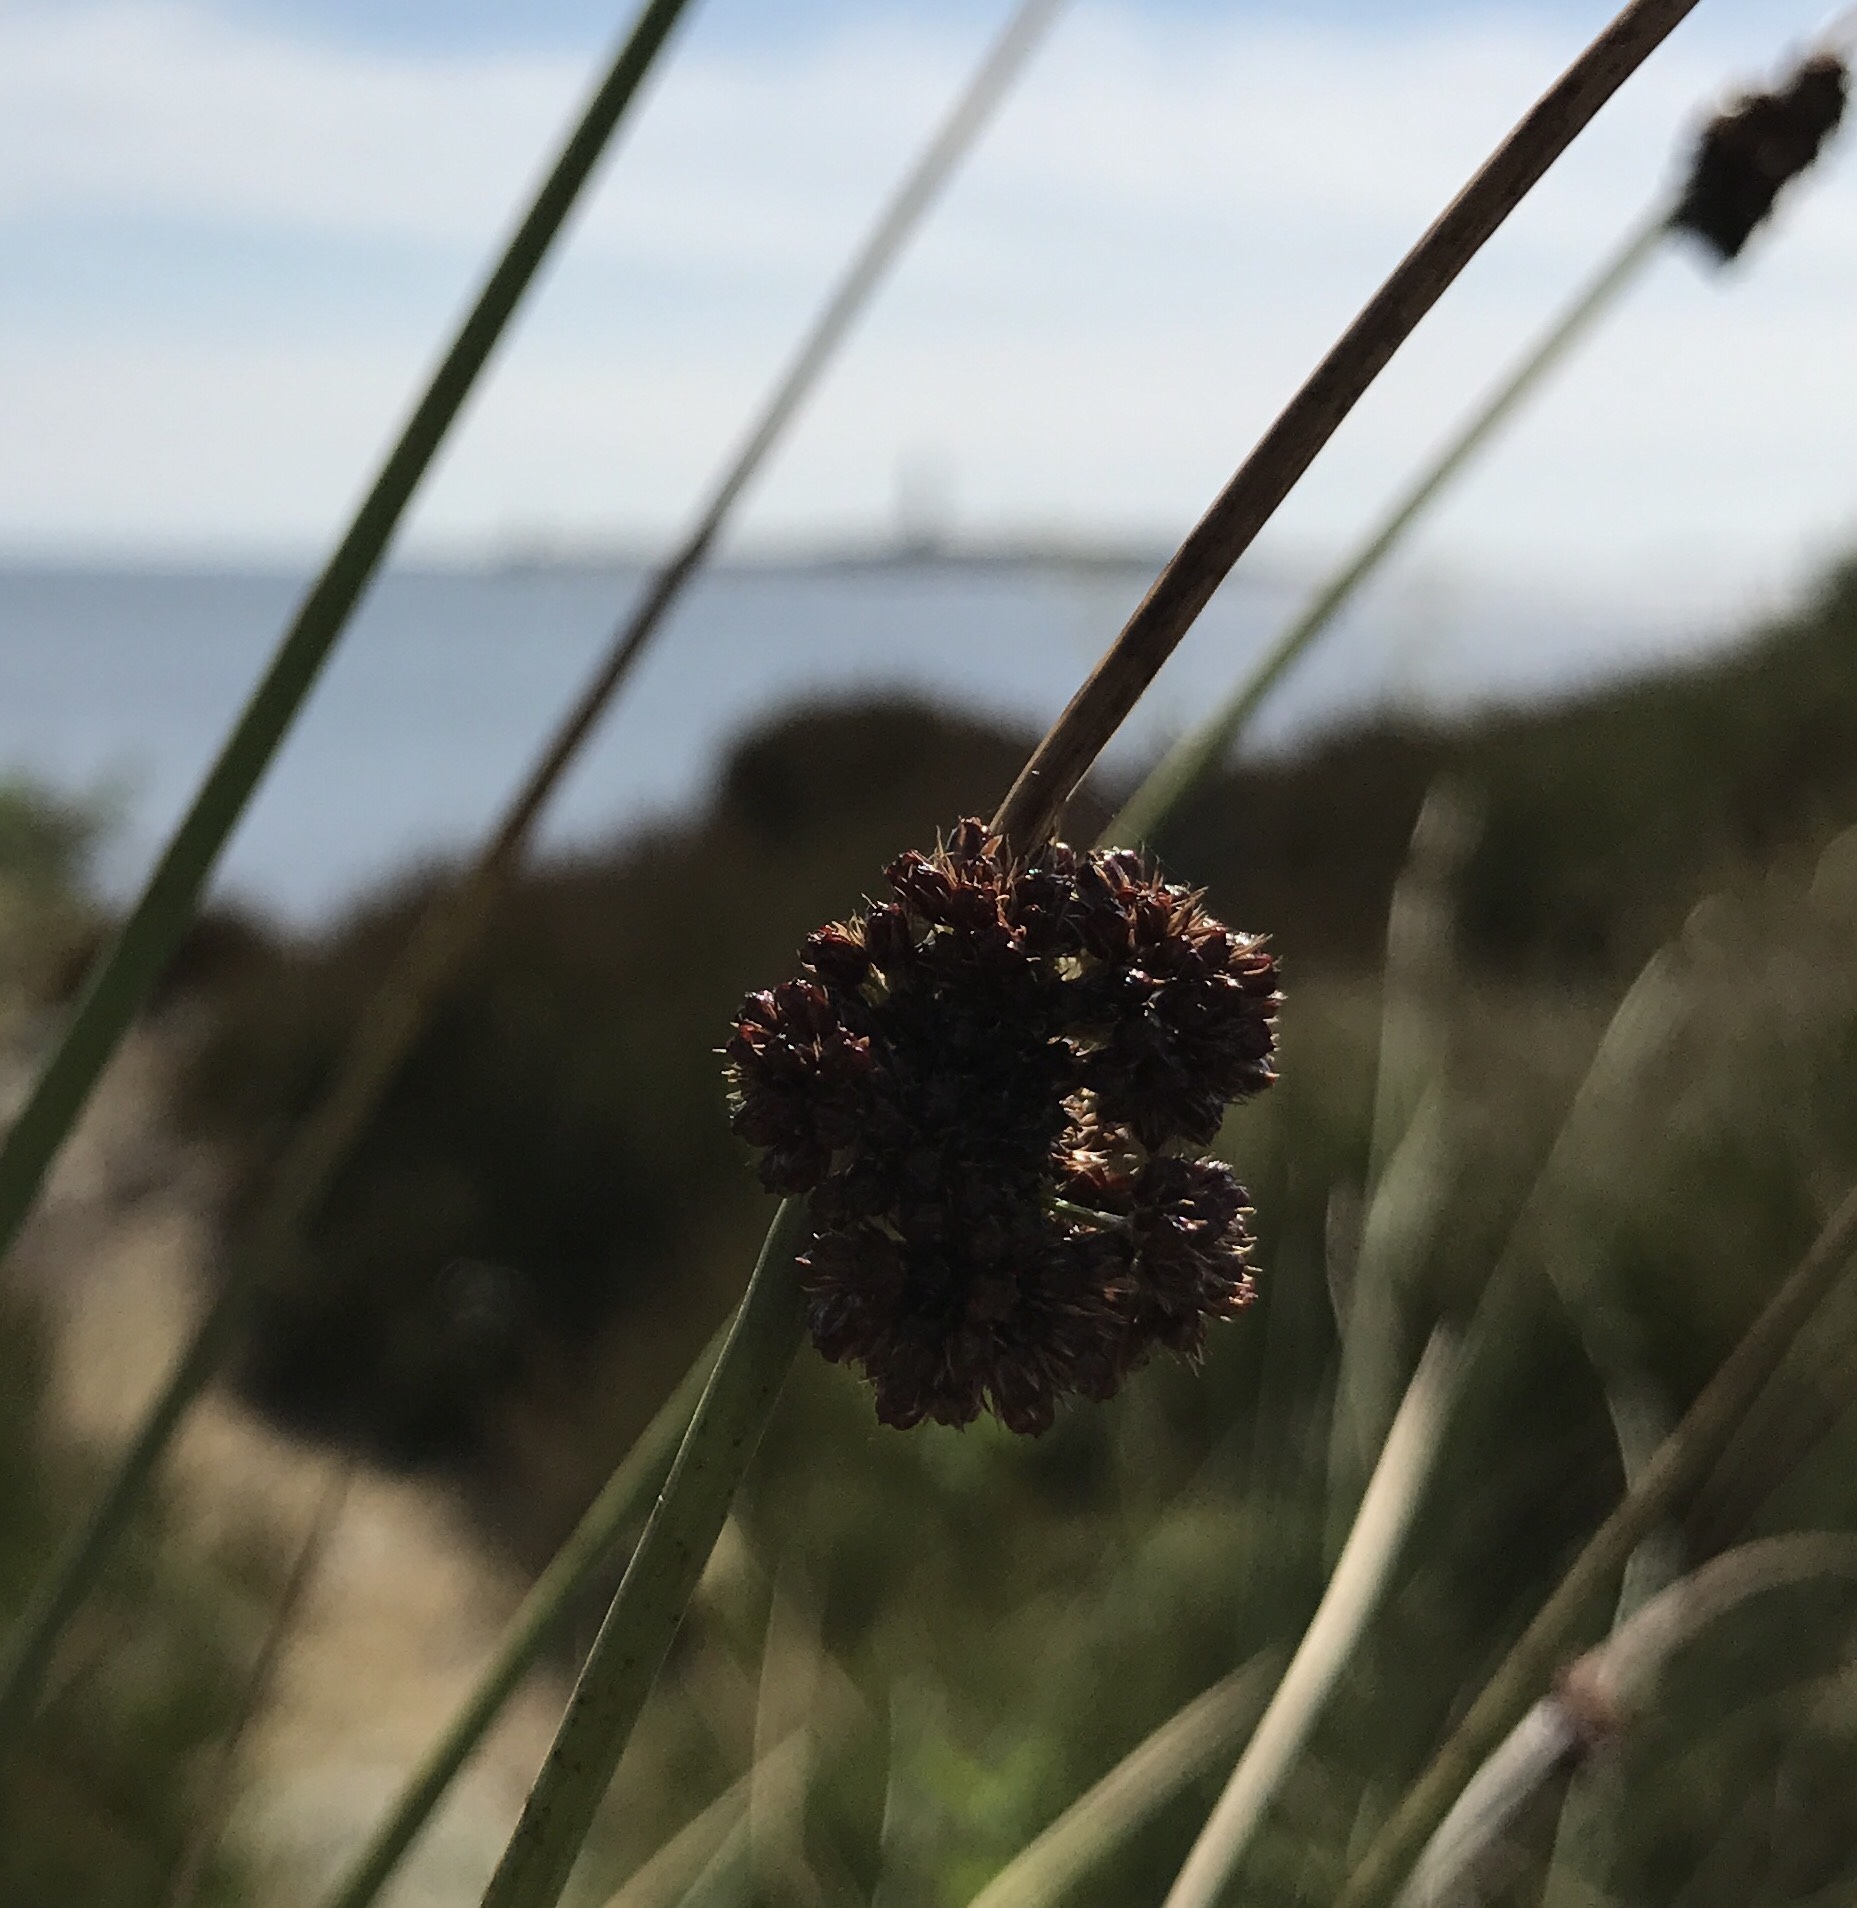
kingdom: Plantae
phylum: Tracheophyta
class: Liliopsida
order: Poales
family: Juncaceae
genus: Juncus
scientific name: Juncus conglomeratus
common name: Compact rush
